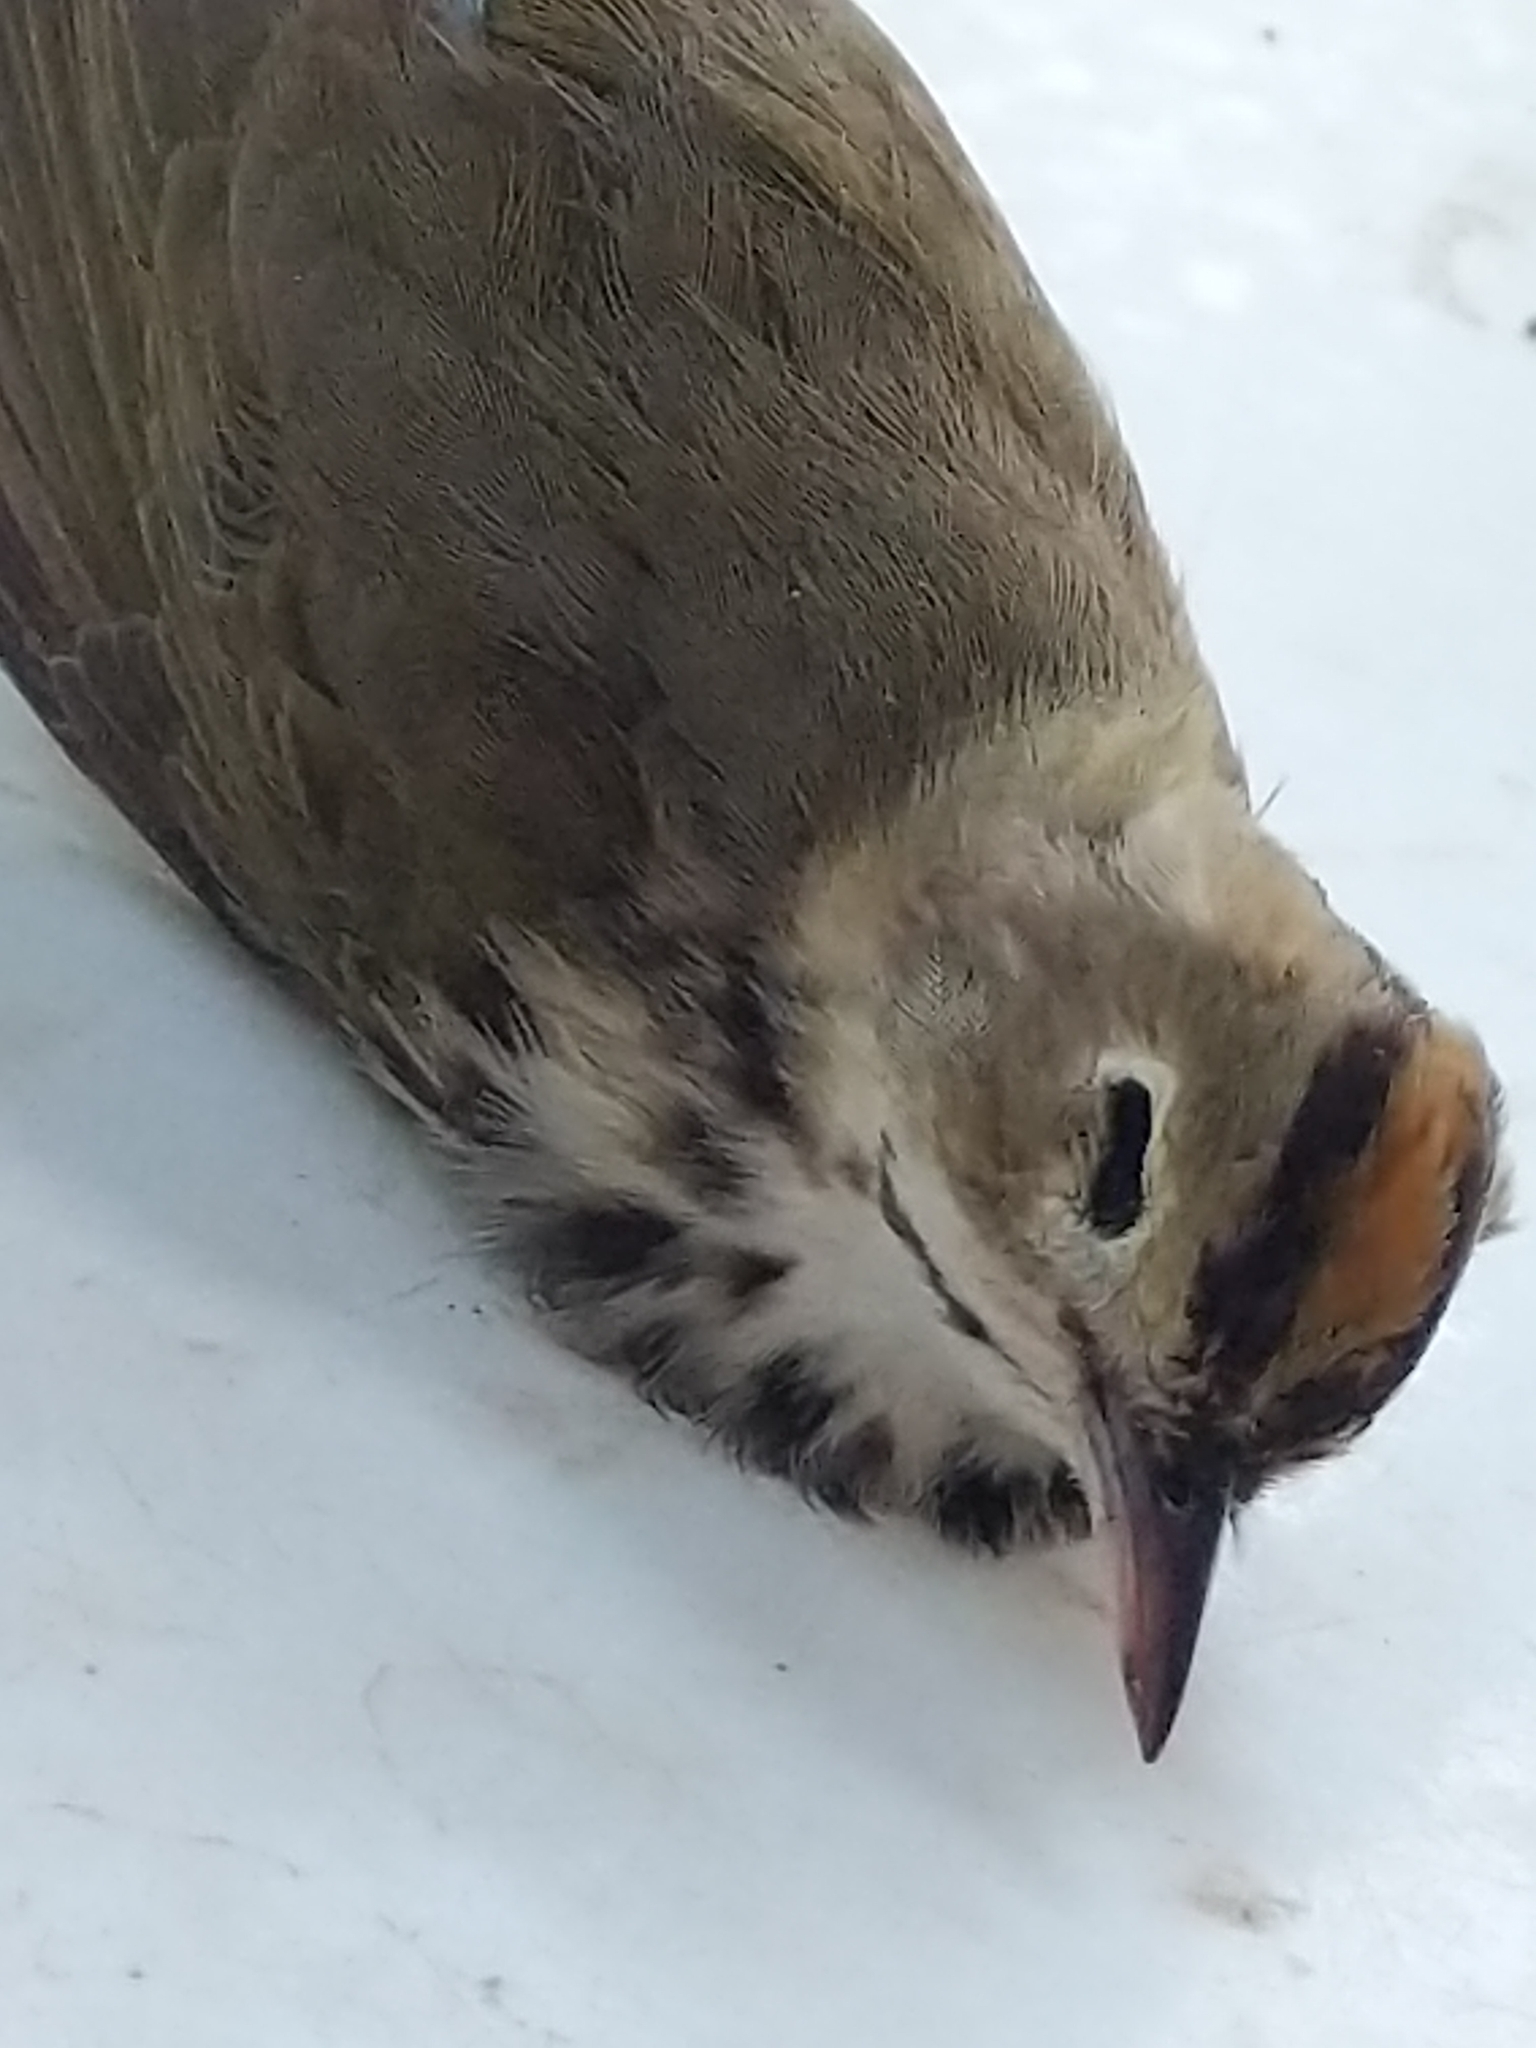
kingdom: Animalia
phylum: Chordata
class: Aves
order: Passeriformes
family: Parulidae
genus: Seiurus
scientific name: Seiurus aurocapilla
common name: Ovenbird
